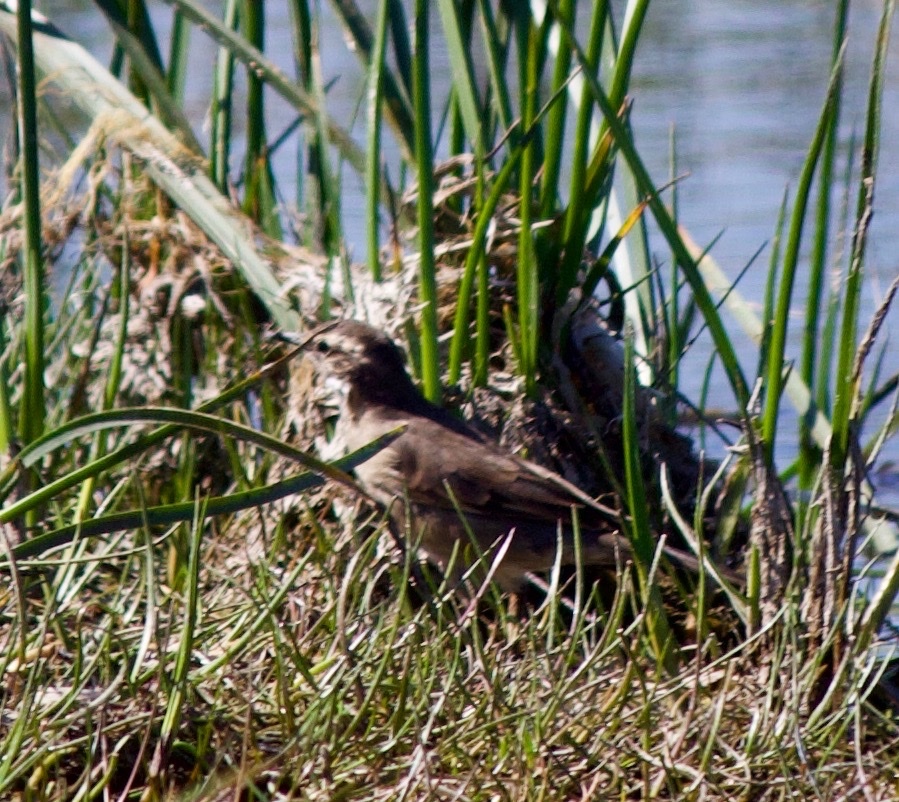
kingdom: Animalia
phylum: Chordata
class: Aves
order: Passeriformes
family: Furnariidae
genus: Cinclodes
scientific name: Cinclodes fuscus
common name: Buff-winged cinclodes
